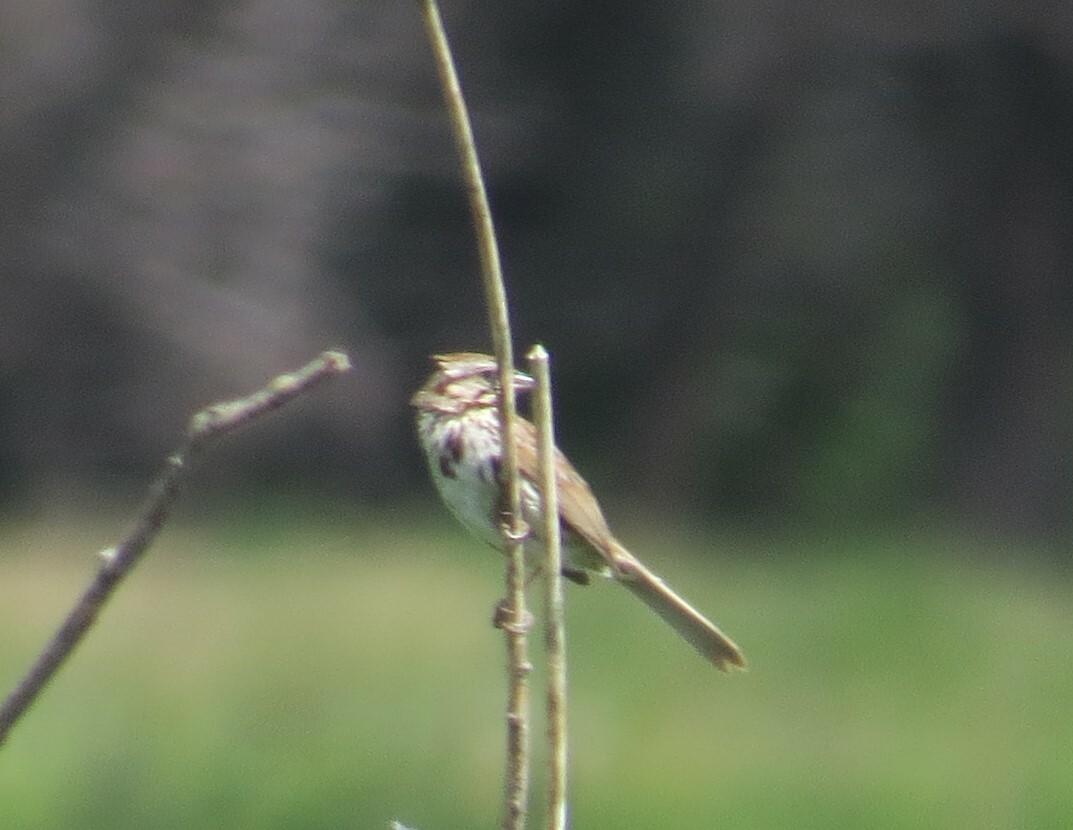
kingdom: Animalia
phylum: Chordata
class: Aves
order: Passeriformes
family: Passerellidae
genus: Melospiza
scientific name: Melospiza melodia
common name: Song sparrow
